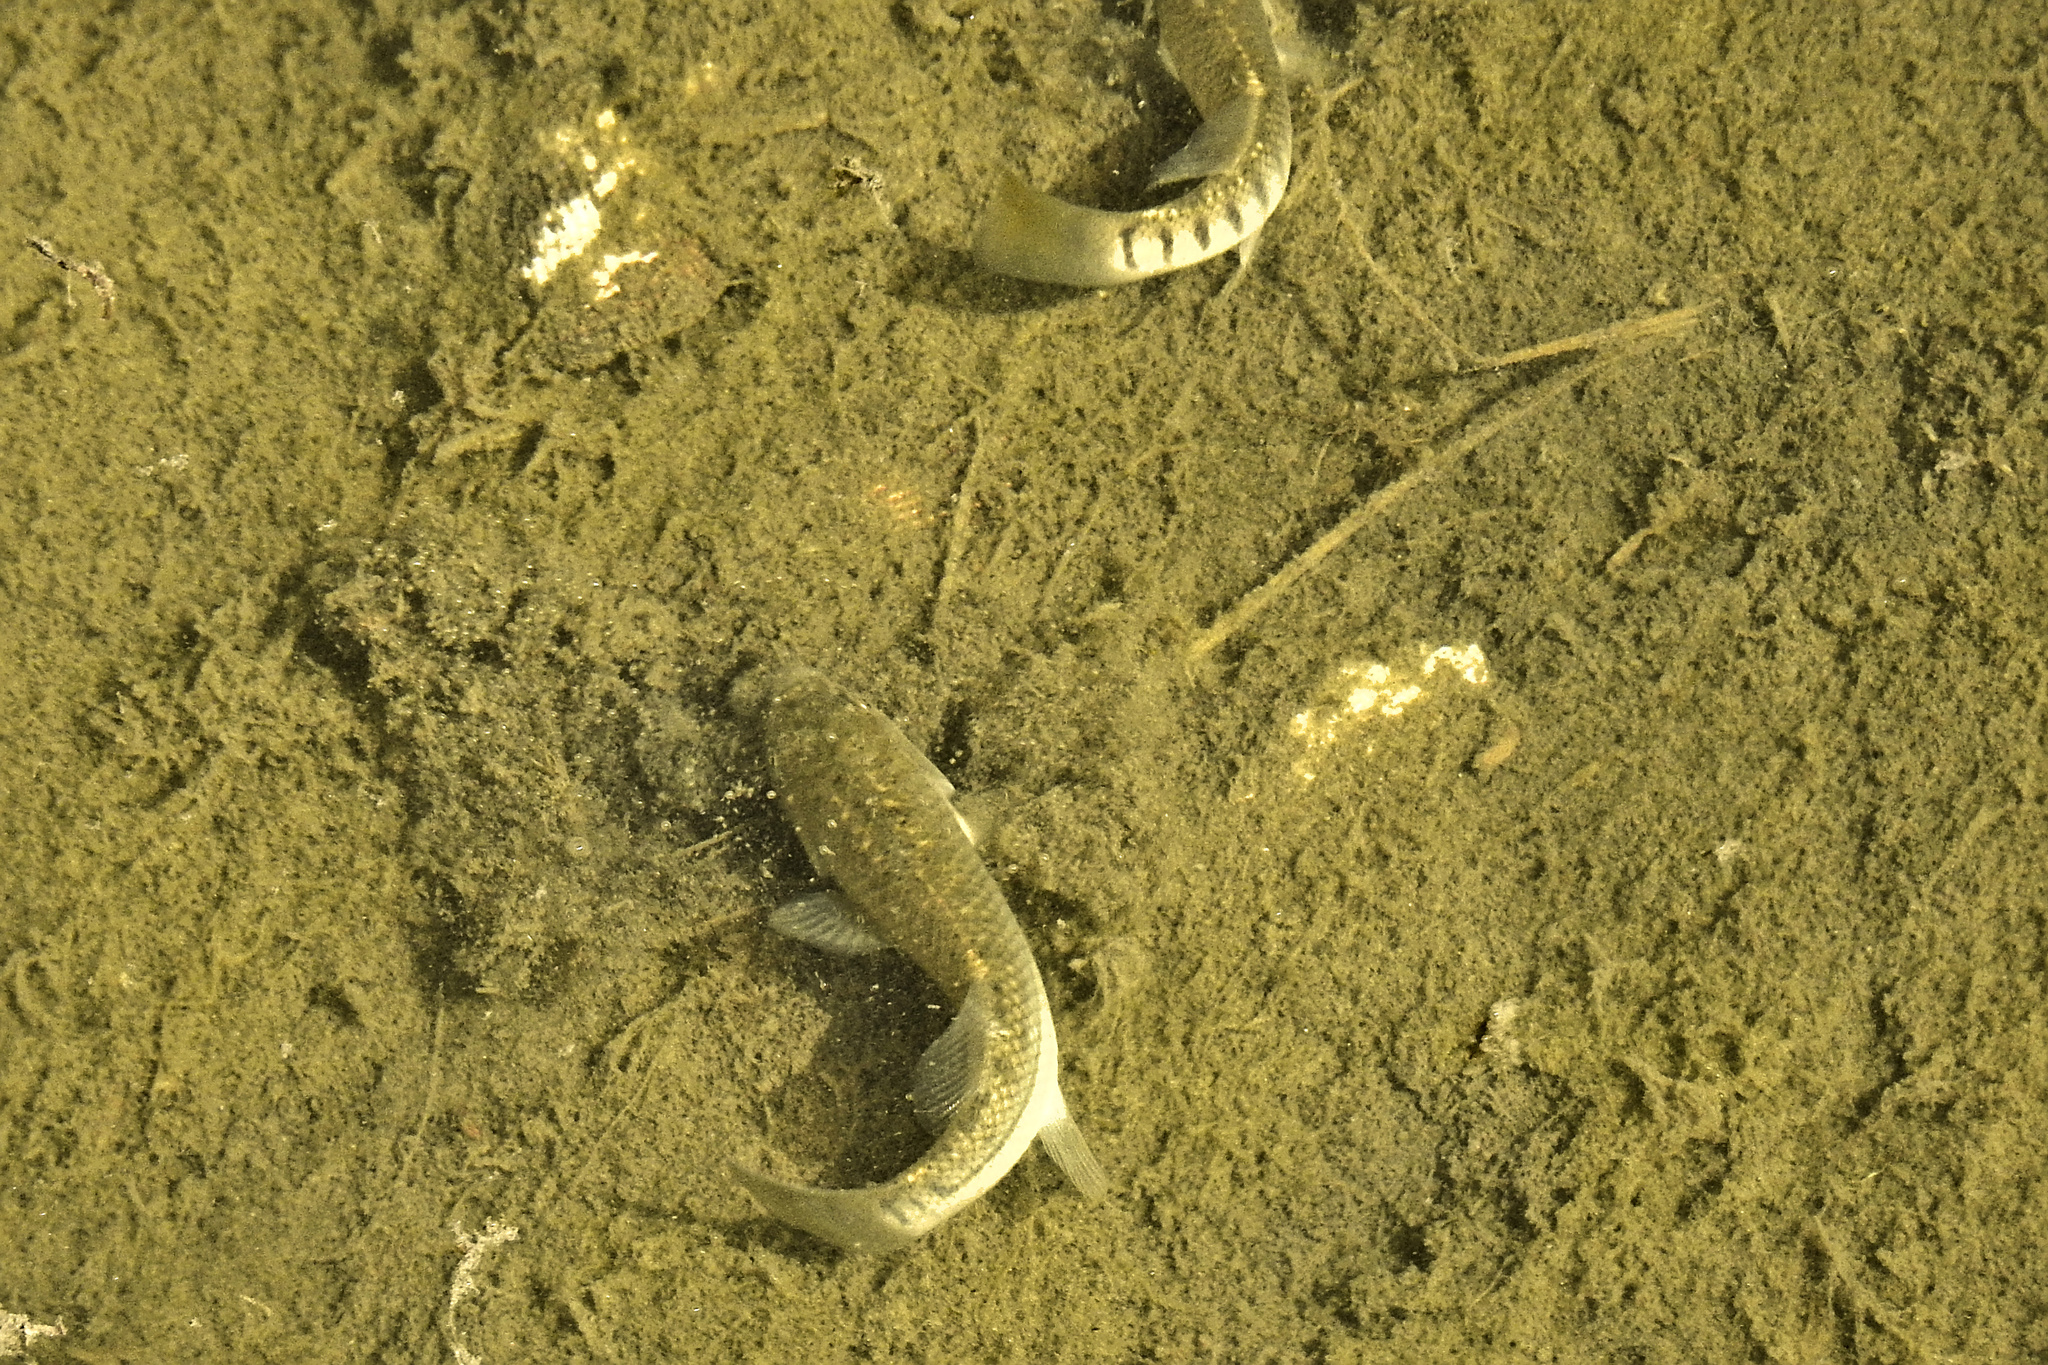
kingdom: Animalia
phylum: Chordata
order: Cyprinodontiformes
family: Fundulidae
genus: Fundulus
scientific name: Fundulus majalis
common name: Striped killifish
